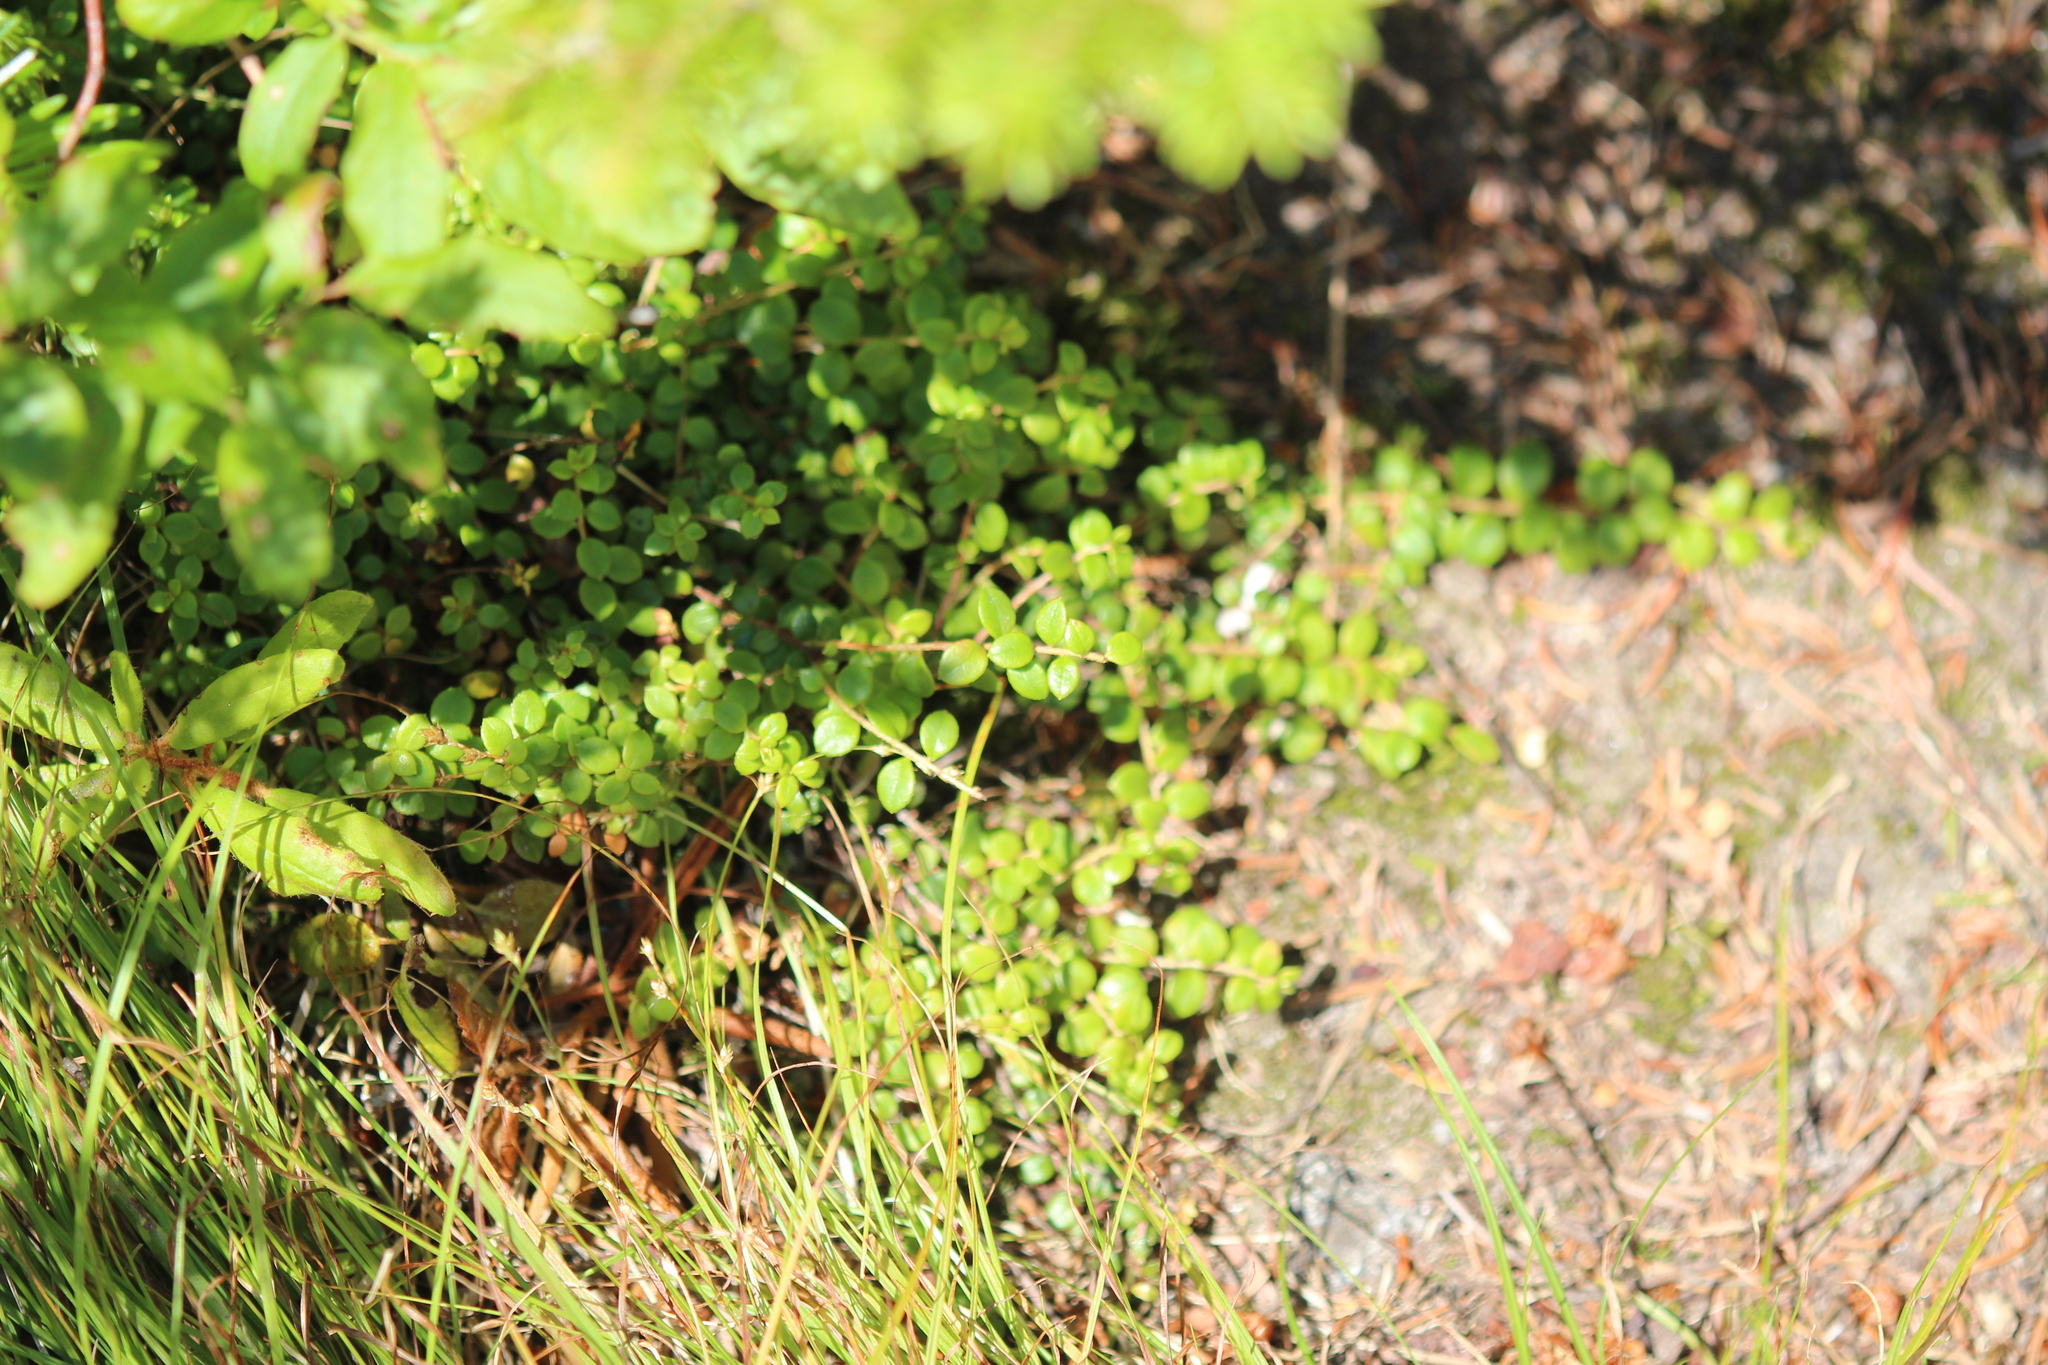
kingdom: Plantae
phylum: Tracheophyta
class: Magnoliopsida
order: Ericales
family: Ericaceae
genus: Gaultheria
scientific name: Gaultheria hispidula
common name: Cancer wintergreen
